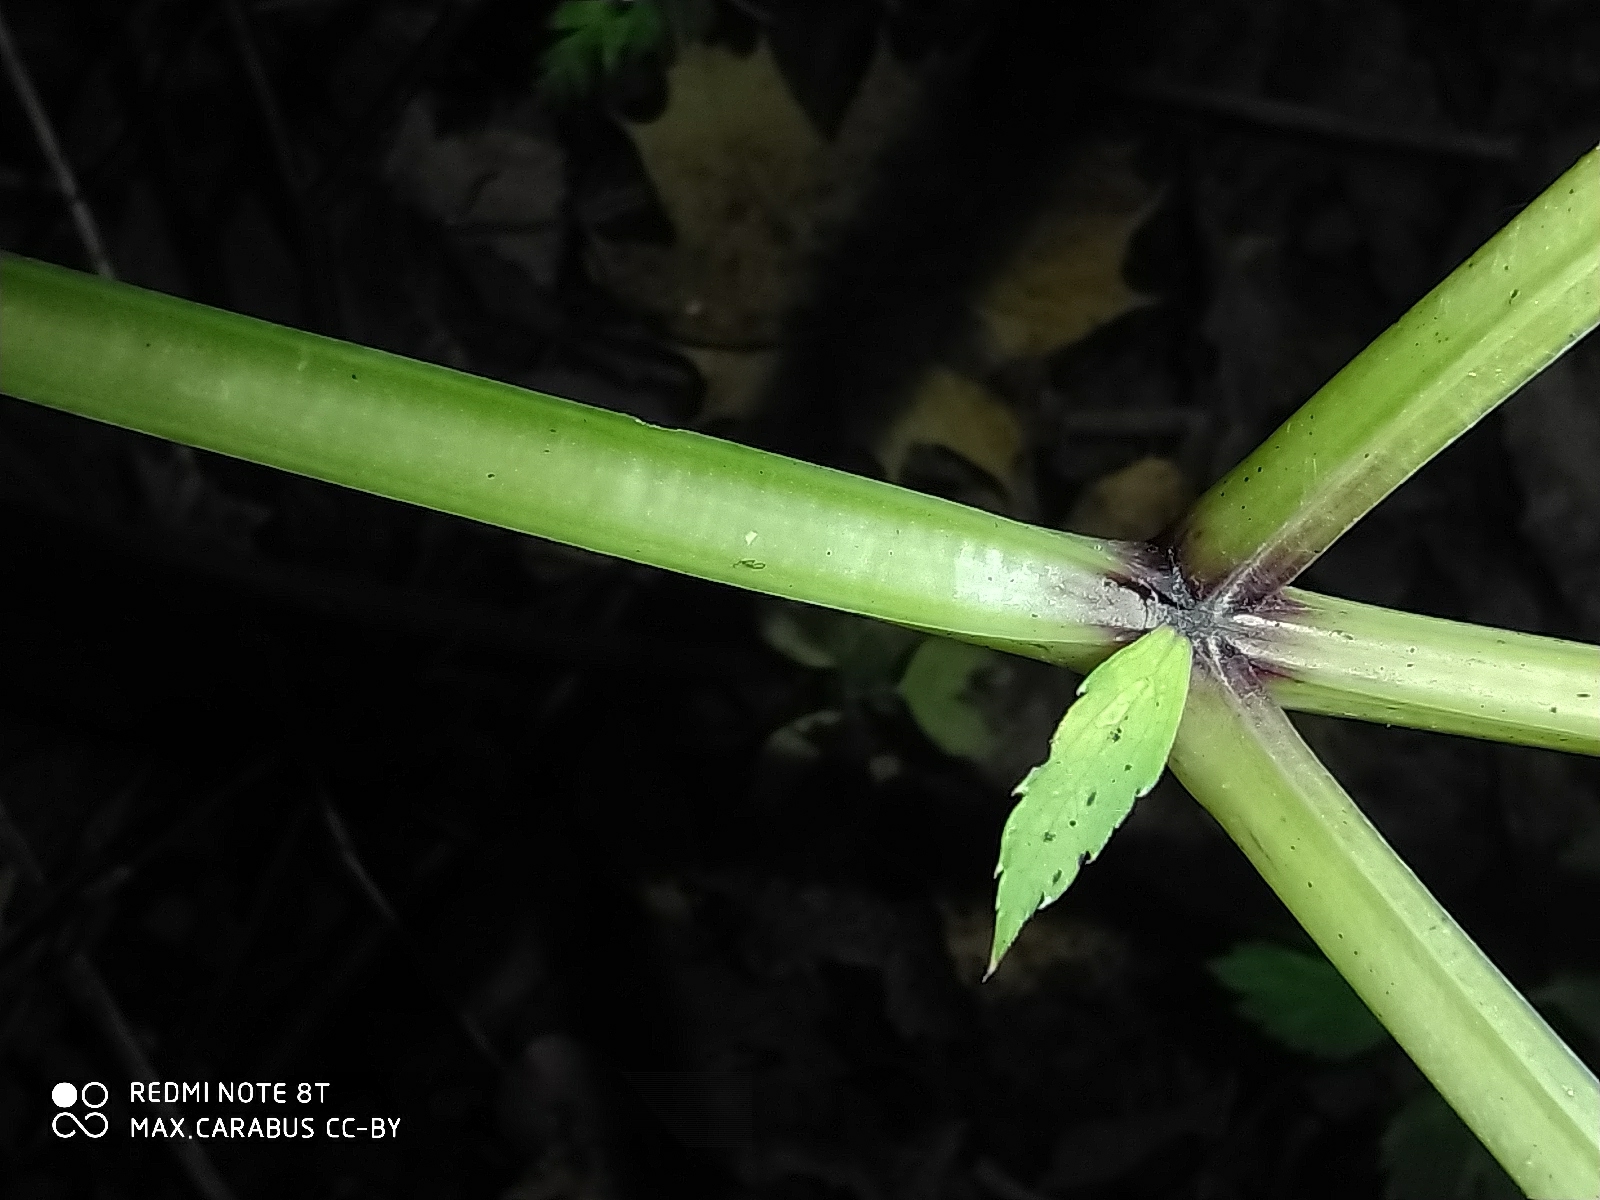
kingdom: Plantae
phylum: Tracheophyta
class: Magnoliopsida
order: Apiales
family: Apiaceae
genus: Angelica
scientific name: Angelica sylvestris
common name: Wild angelica
